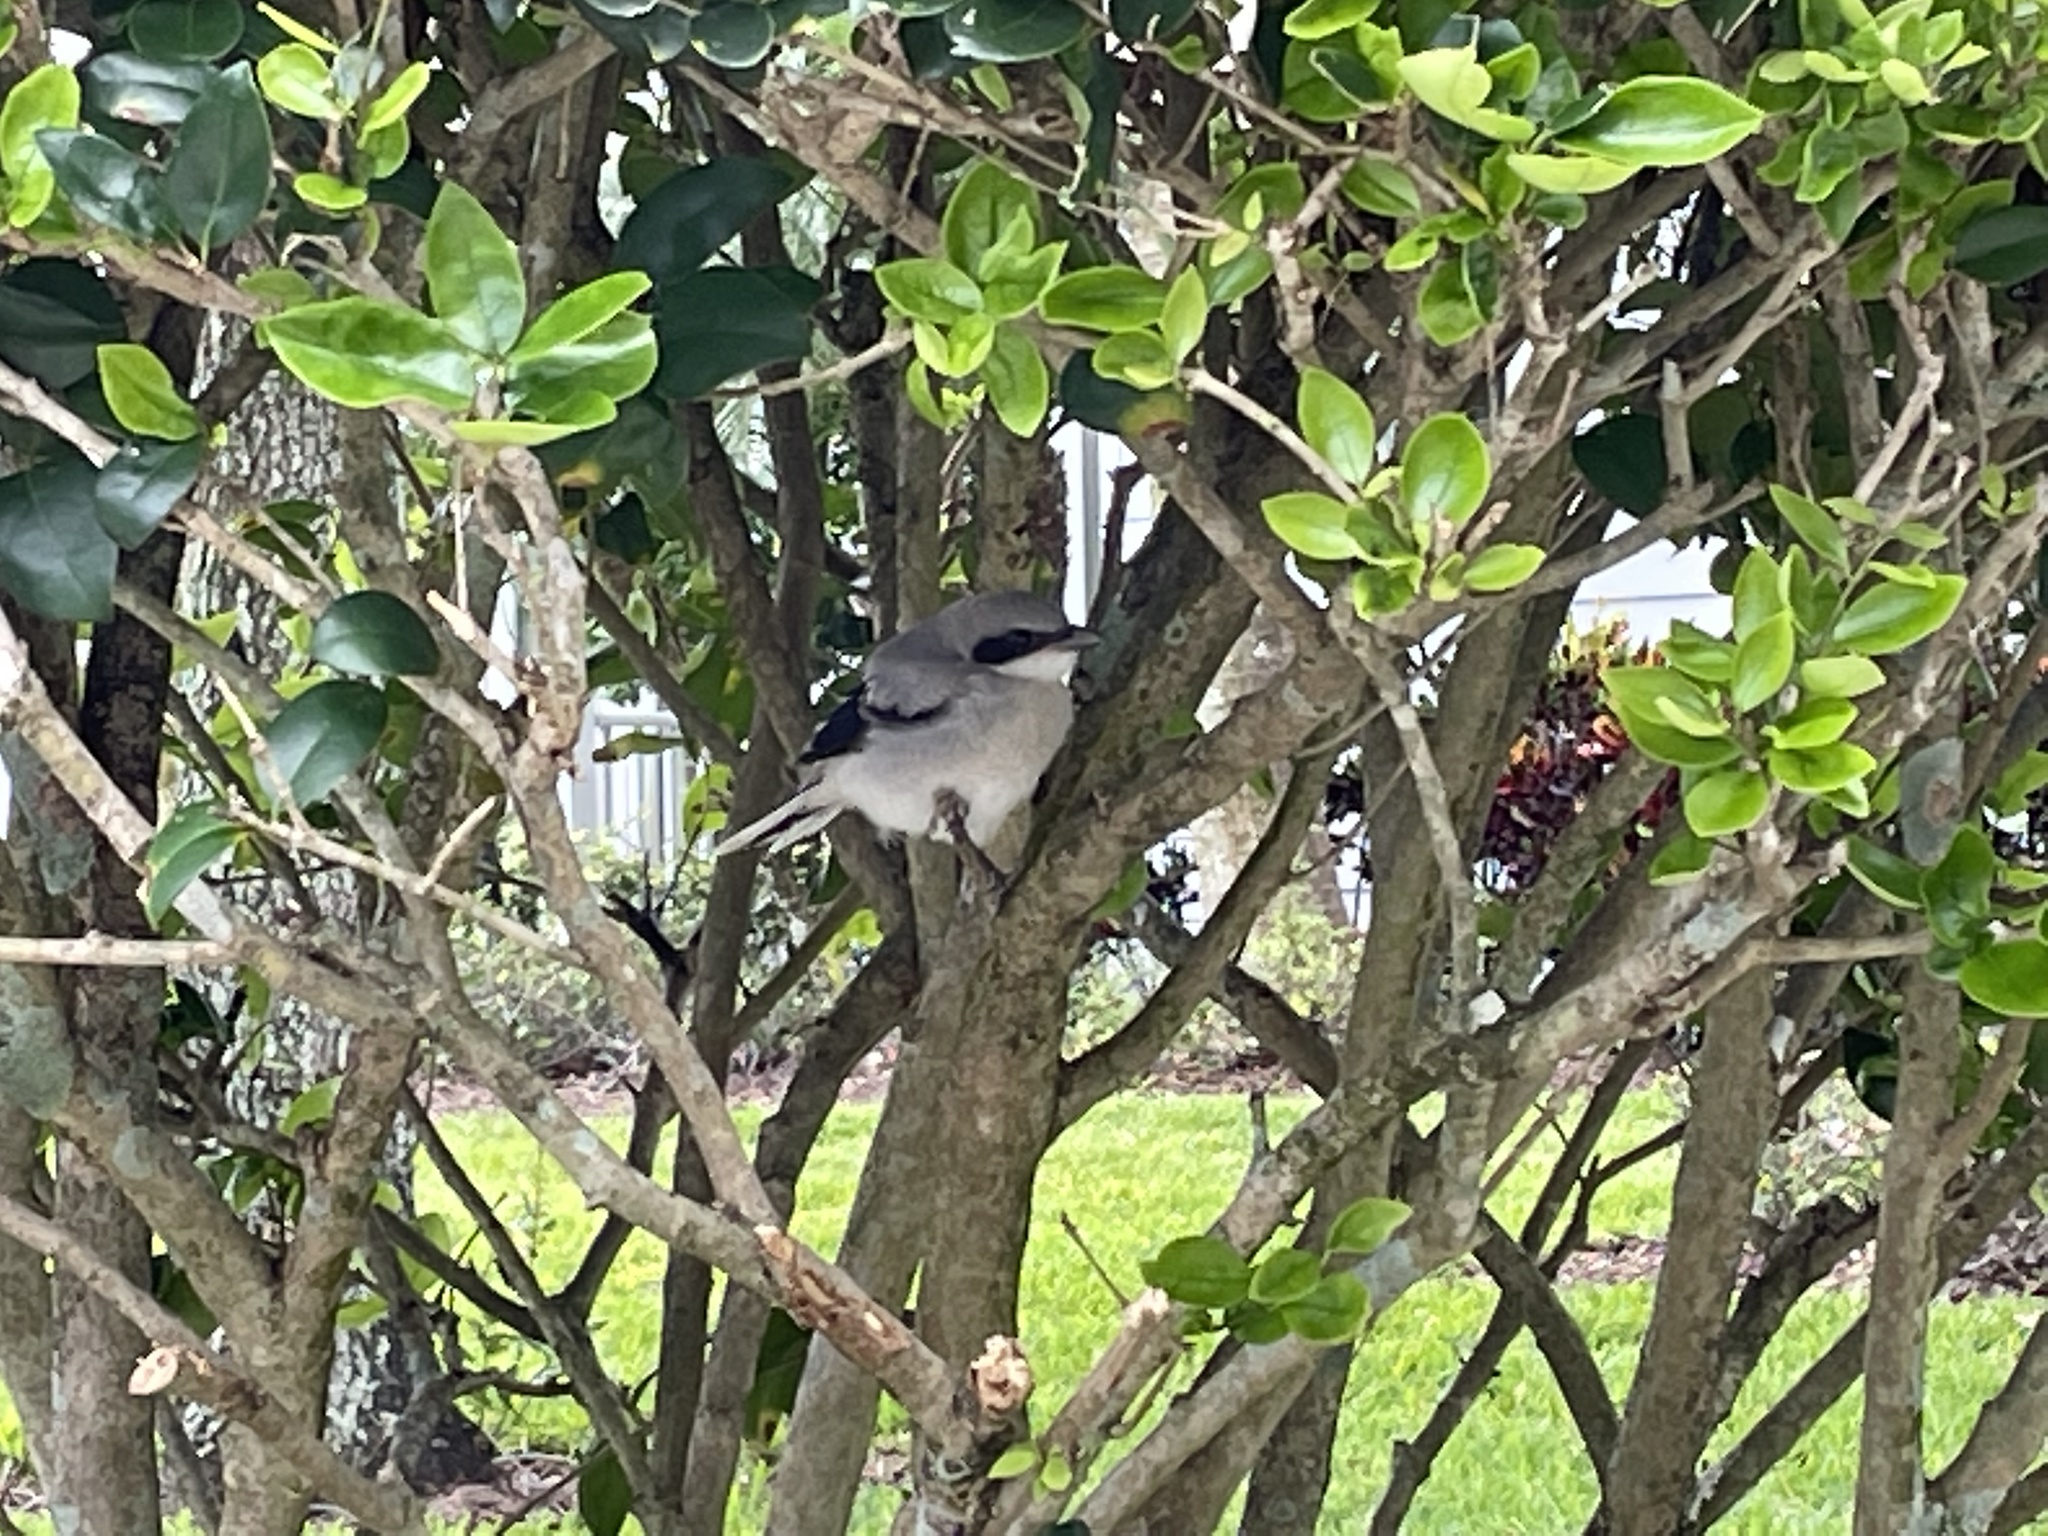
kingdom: Animalia
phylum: Chordata
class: Aves
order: Passeriformes
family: Laniidae
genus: Lanius
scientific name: Lanius ludovicianus
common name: Loggerhead shrike
